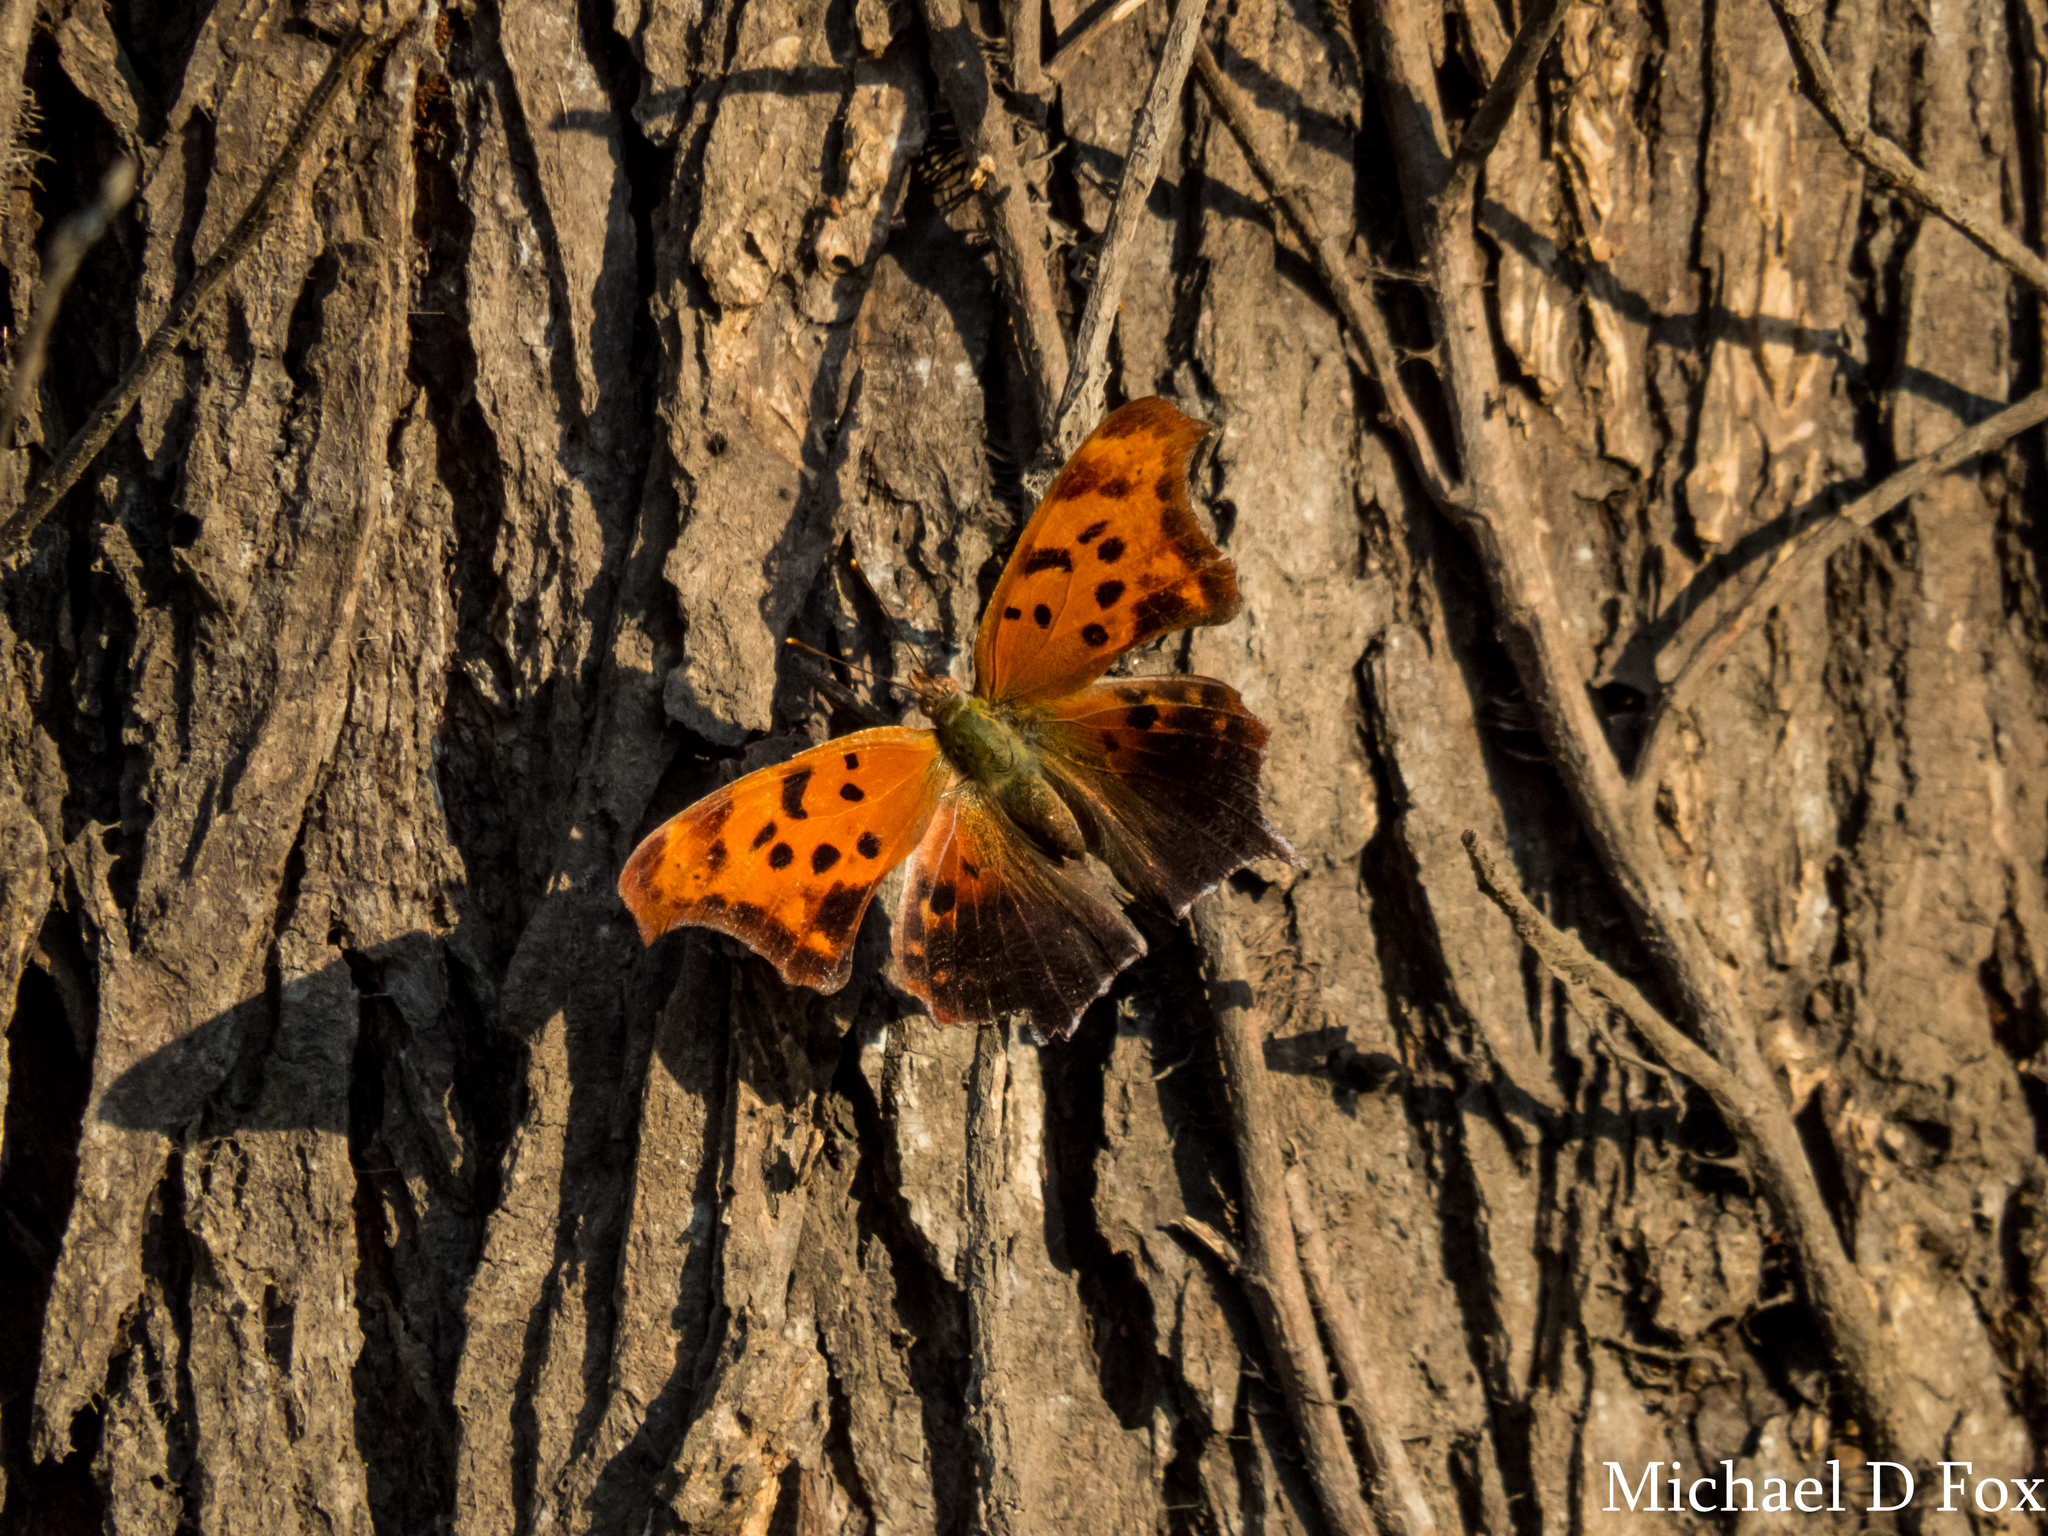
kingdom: Animalia
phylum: Arthropoda
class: Insecta
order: Lepidoptera
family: Nymphalidae
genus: Polygonia
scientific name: Polygonia interrogationis
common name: Question mark
